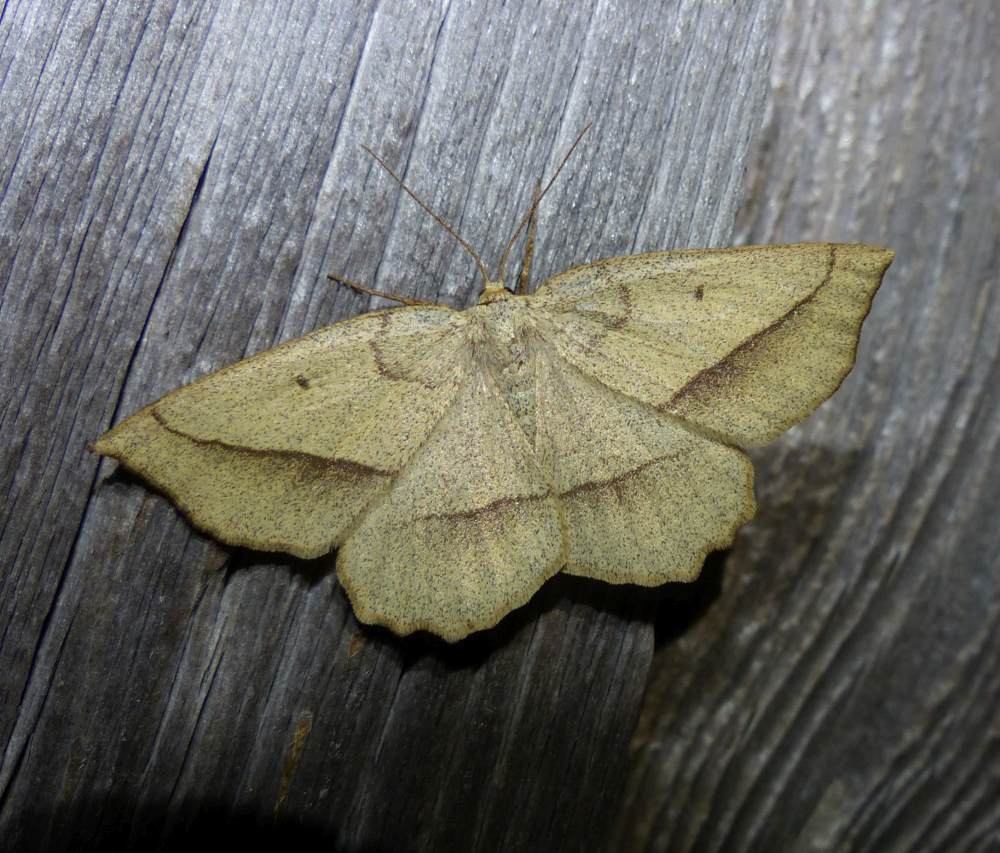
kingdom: Animalia
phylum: Arthropoda
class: Insecta
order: Lepidoptera
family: Geometridae
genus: Euchlaena
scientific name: Euchlaena irraria
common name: Least-marked euchlaena
